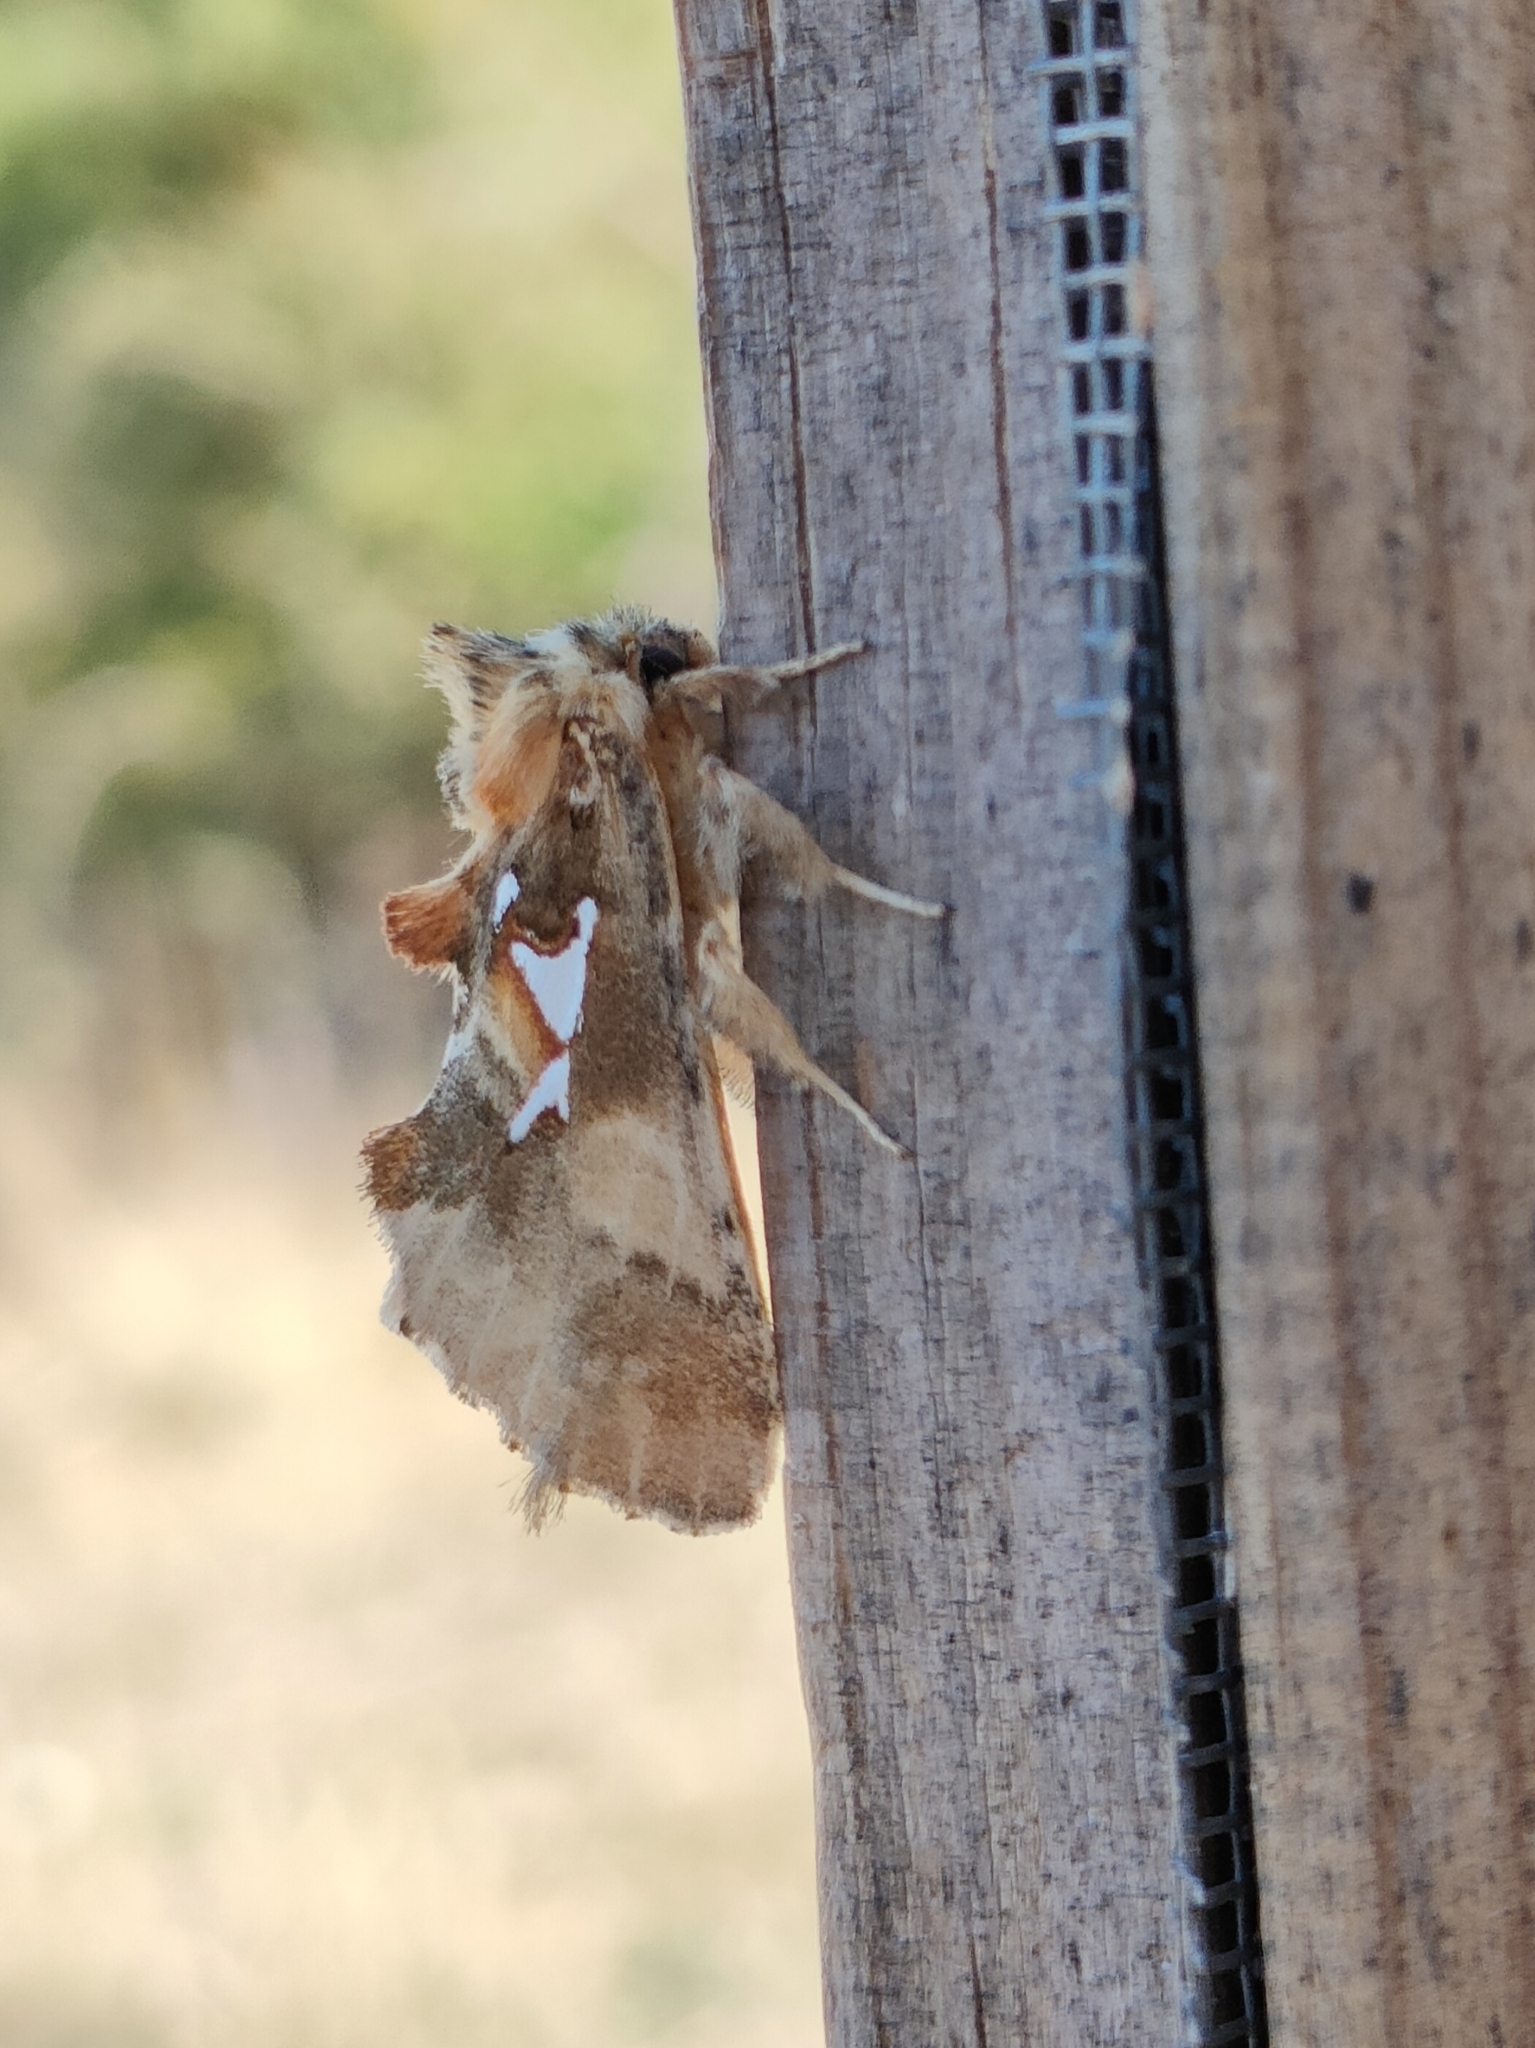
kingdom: Animalia
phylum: Arthropoda
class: Insecta
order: Lepidoptera
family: Notodontidae
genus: Spatalia
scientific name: Spatalia argentina
